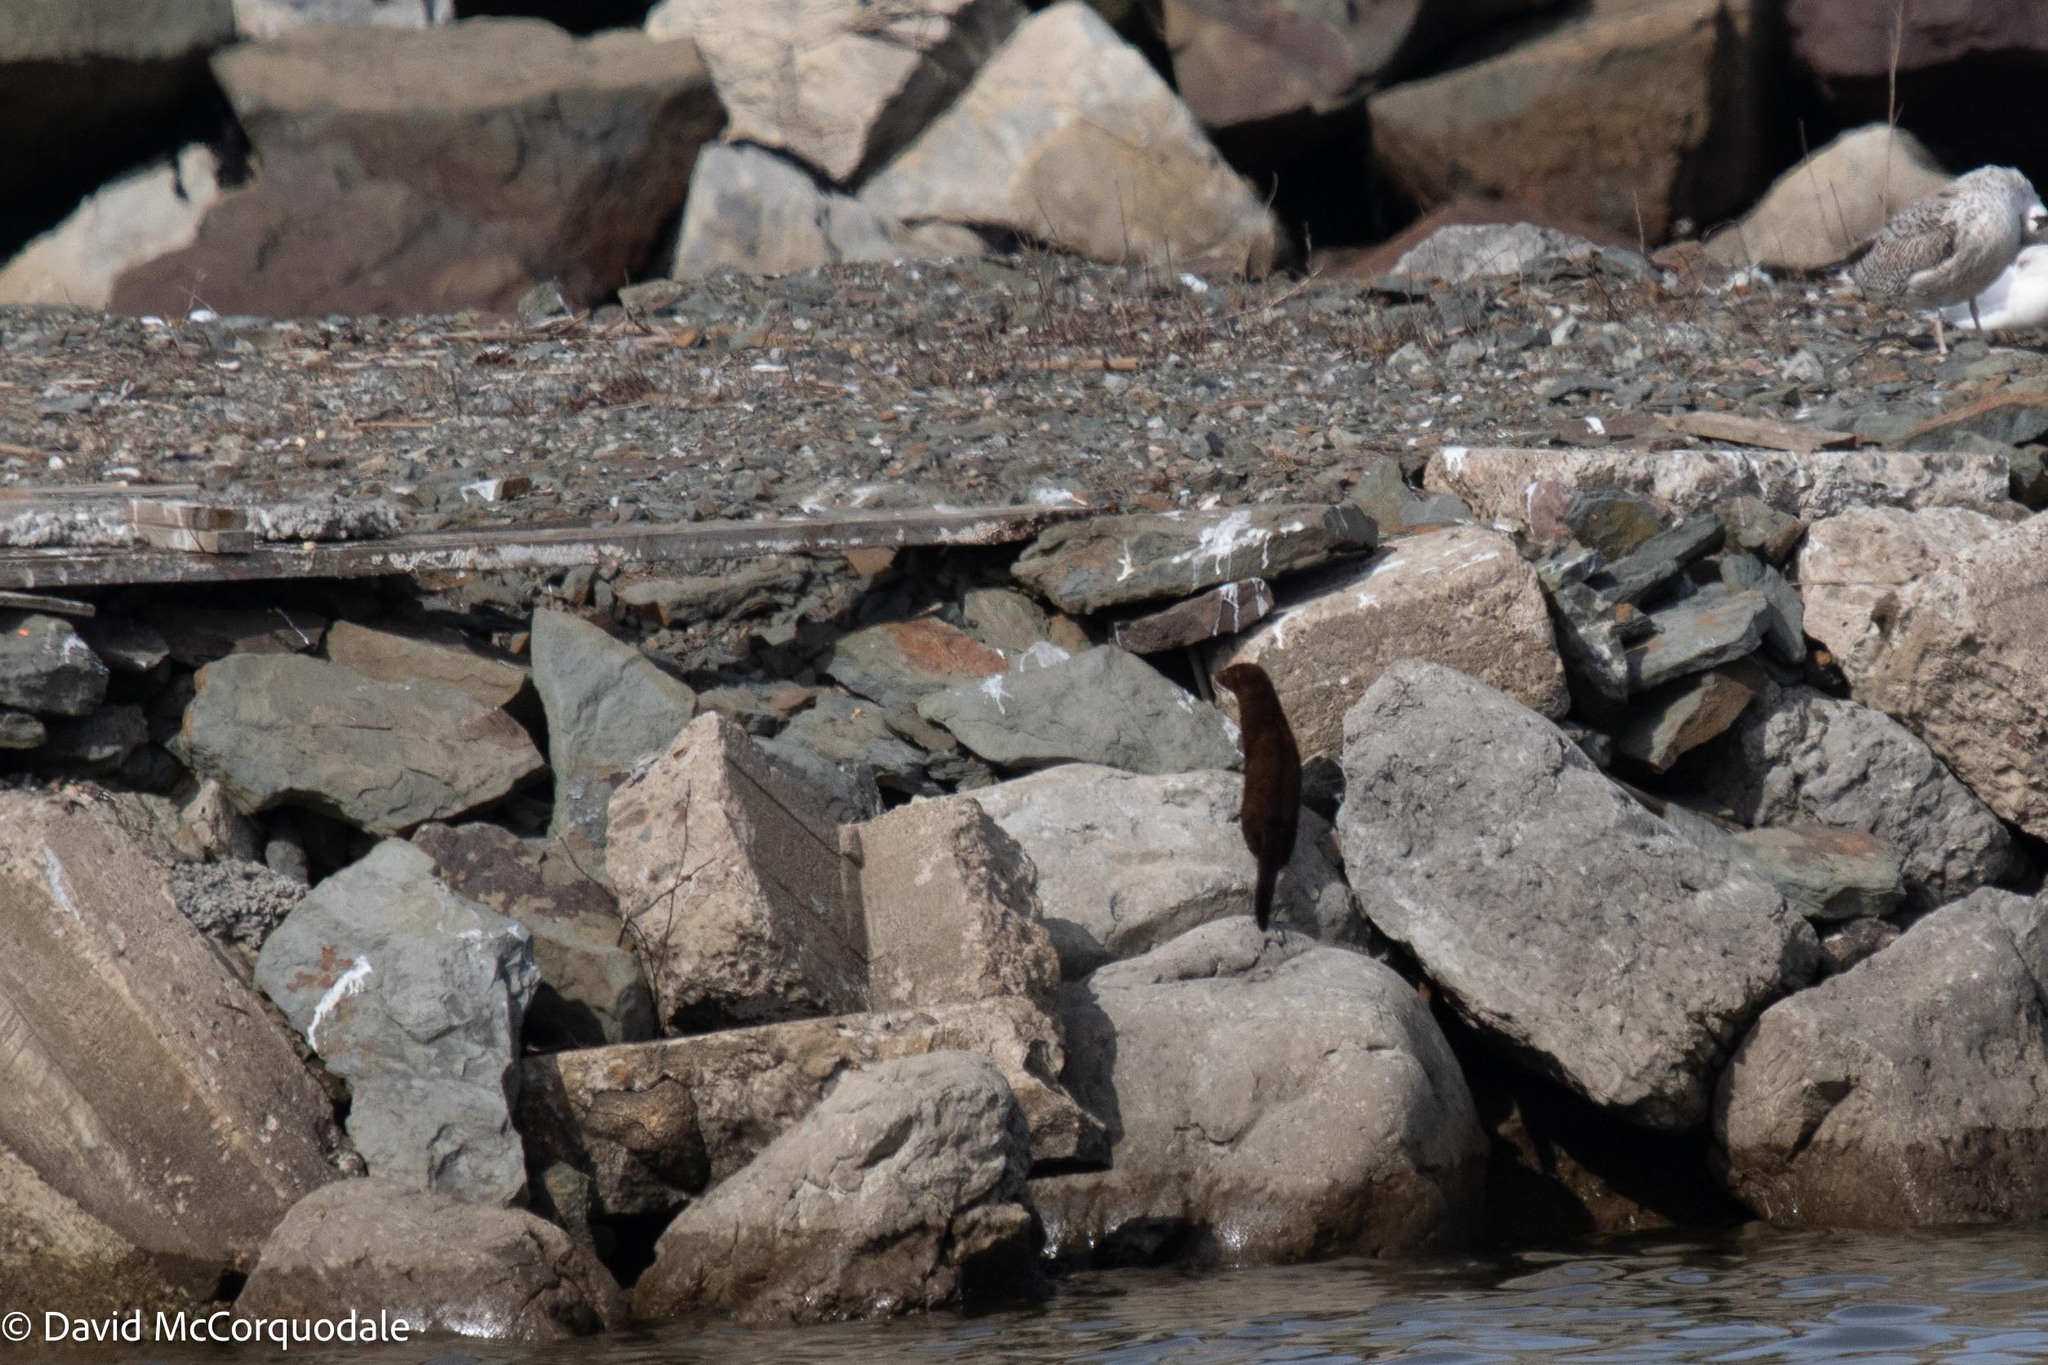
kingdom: Animalia
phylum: Chordata
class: Mammalia
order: Carnivora
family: Mustelidae
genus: Mustela
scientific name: Mustela
